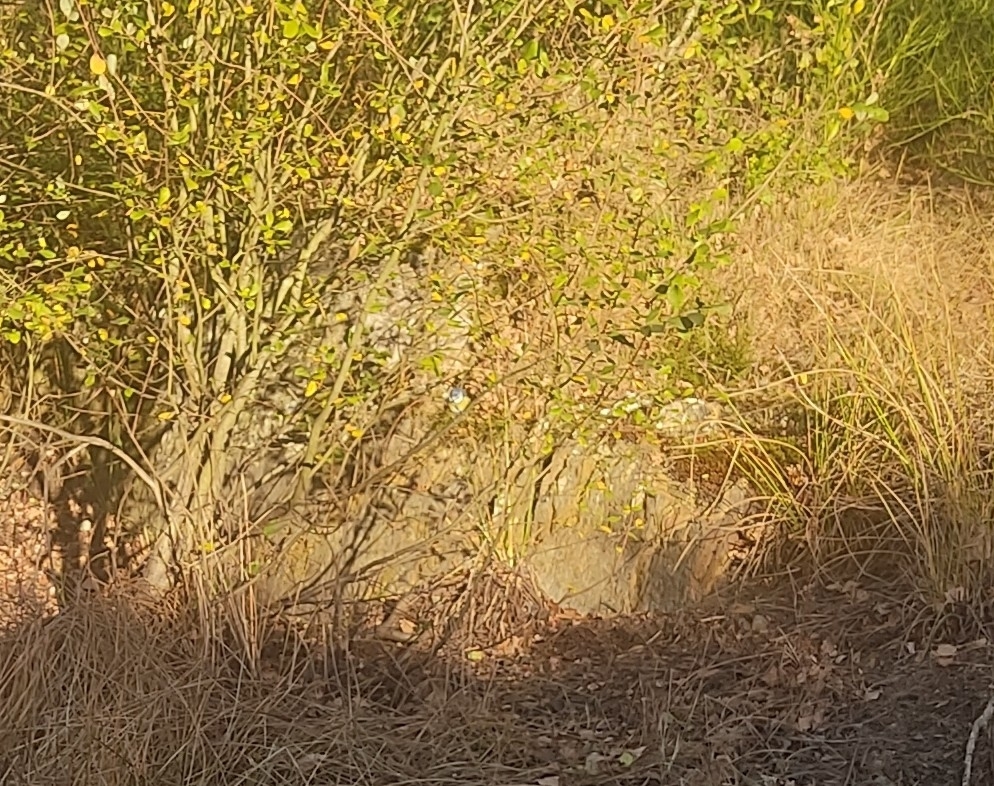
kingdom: Animalia
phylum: Chordata
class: Aves
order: Passeriformes
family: Paridae
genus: Cyanistes
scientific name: Cyanistes caeruleus
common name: Eurasian blue tit
